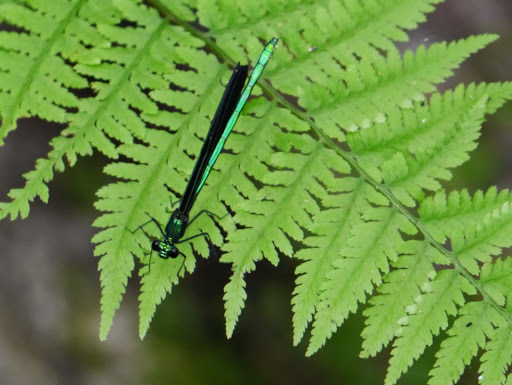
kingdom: Animalia
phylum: Arthropoda
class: Insecta
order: Odonata
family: Calopterygidae
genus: Calopteryx
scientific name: Calopteryx maculata
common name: Ebony jewelwing
